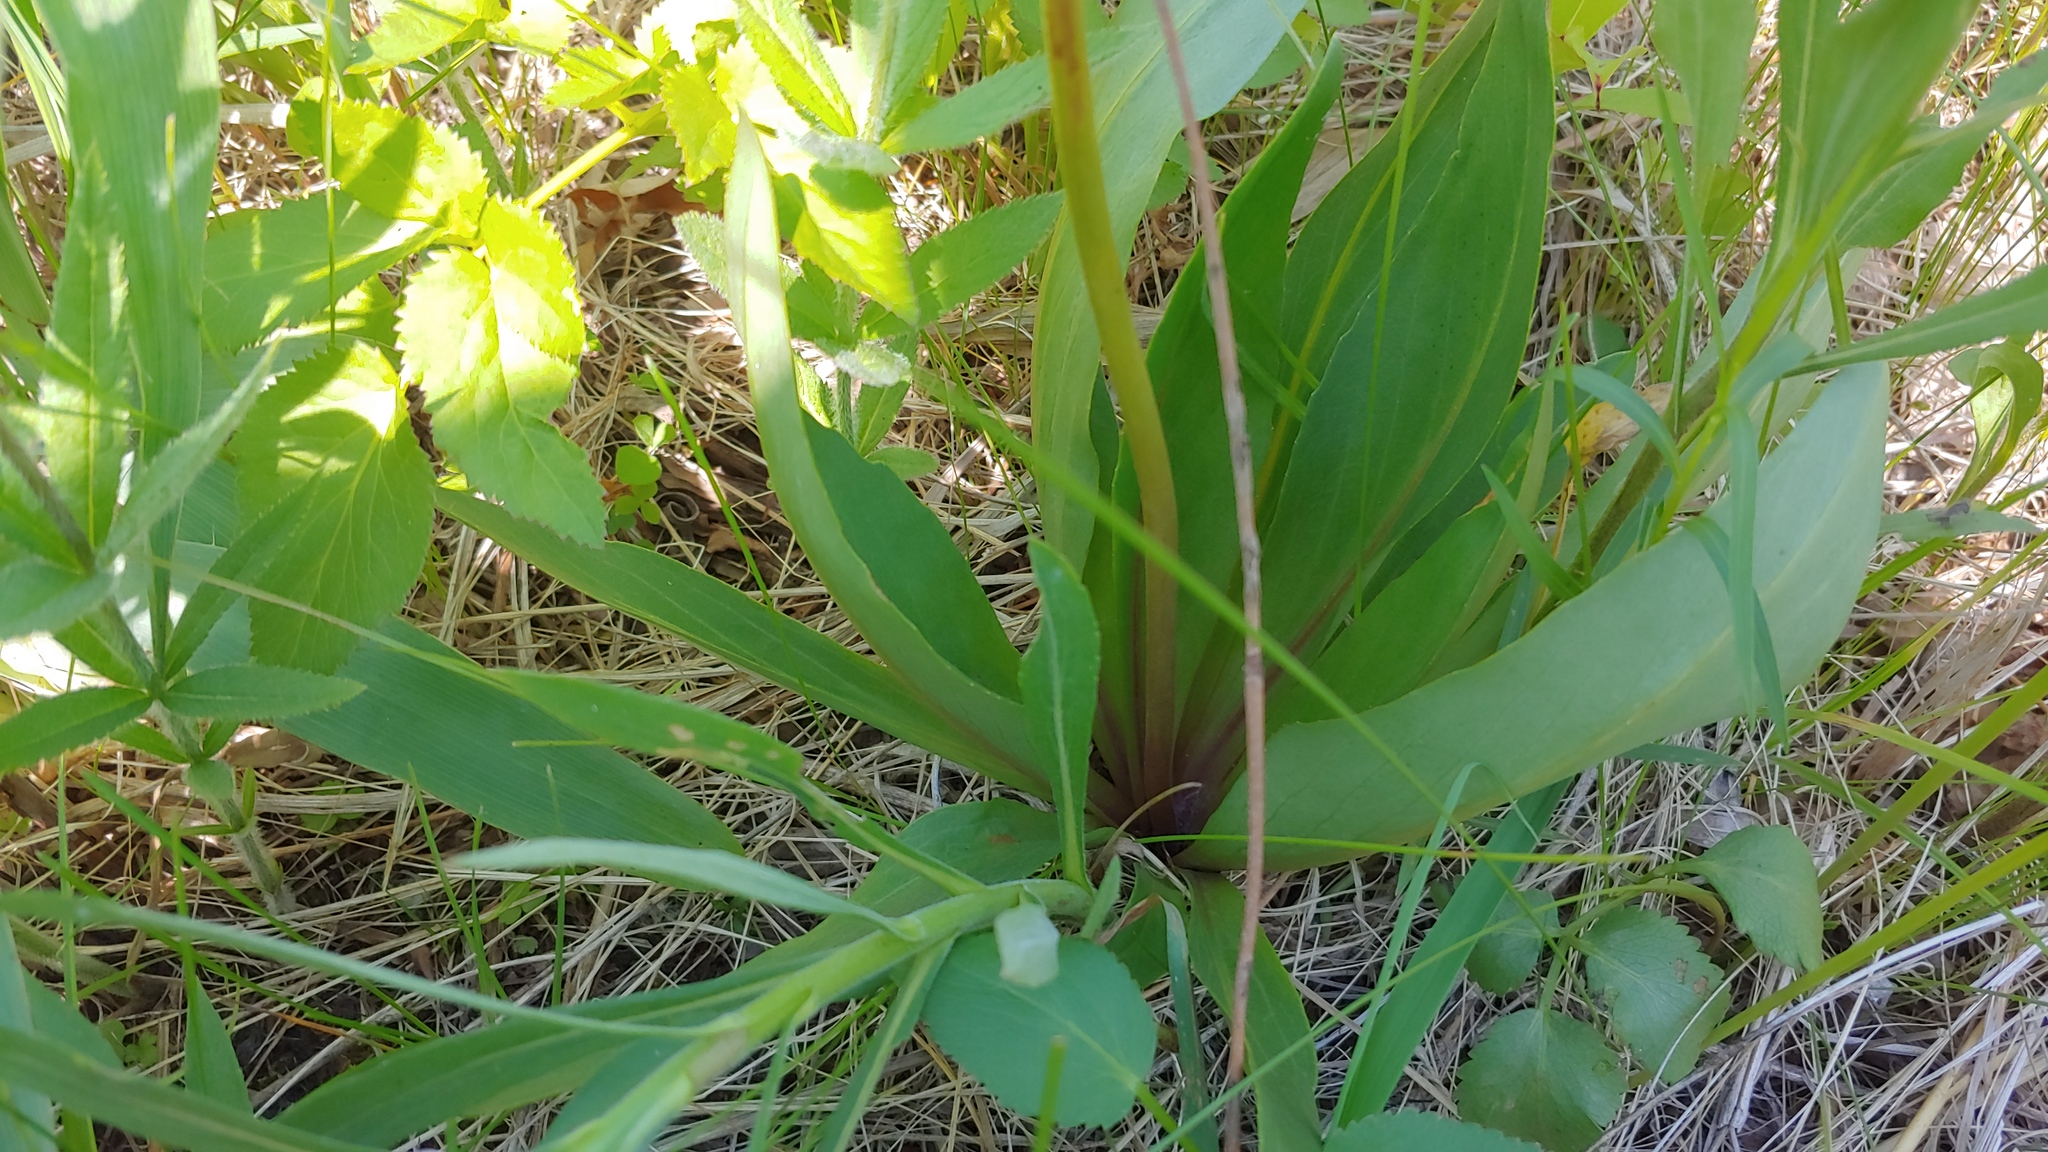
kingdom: Plantae
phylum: Tracheophyta
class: Magnoliopsida
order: Ericales
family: Primulaceae
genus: Dodecatheon
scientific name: Dodecatheon meadia
